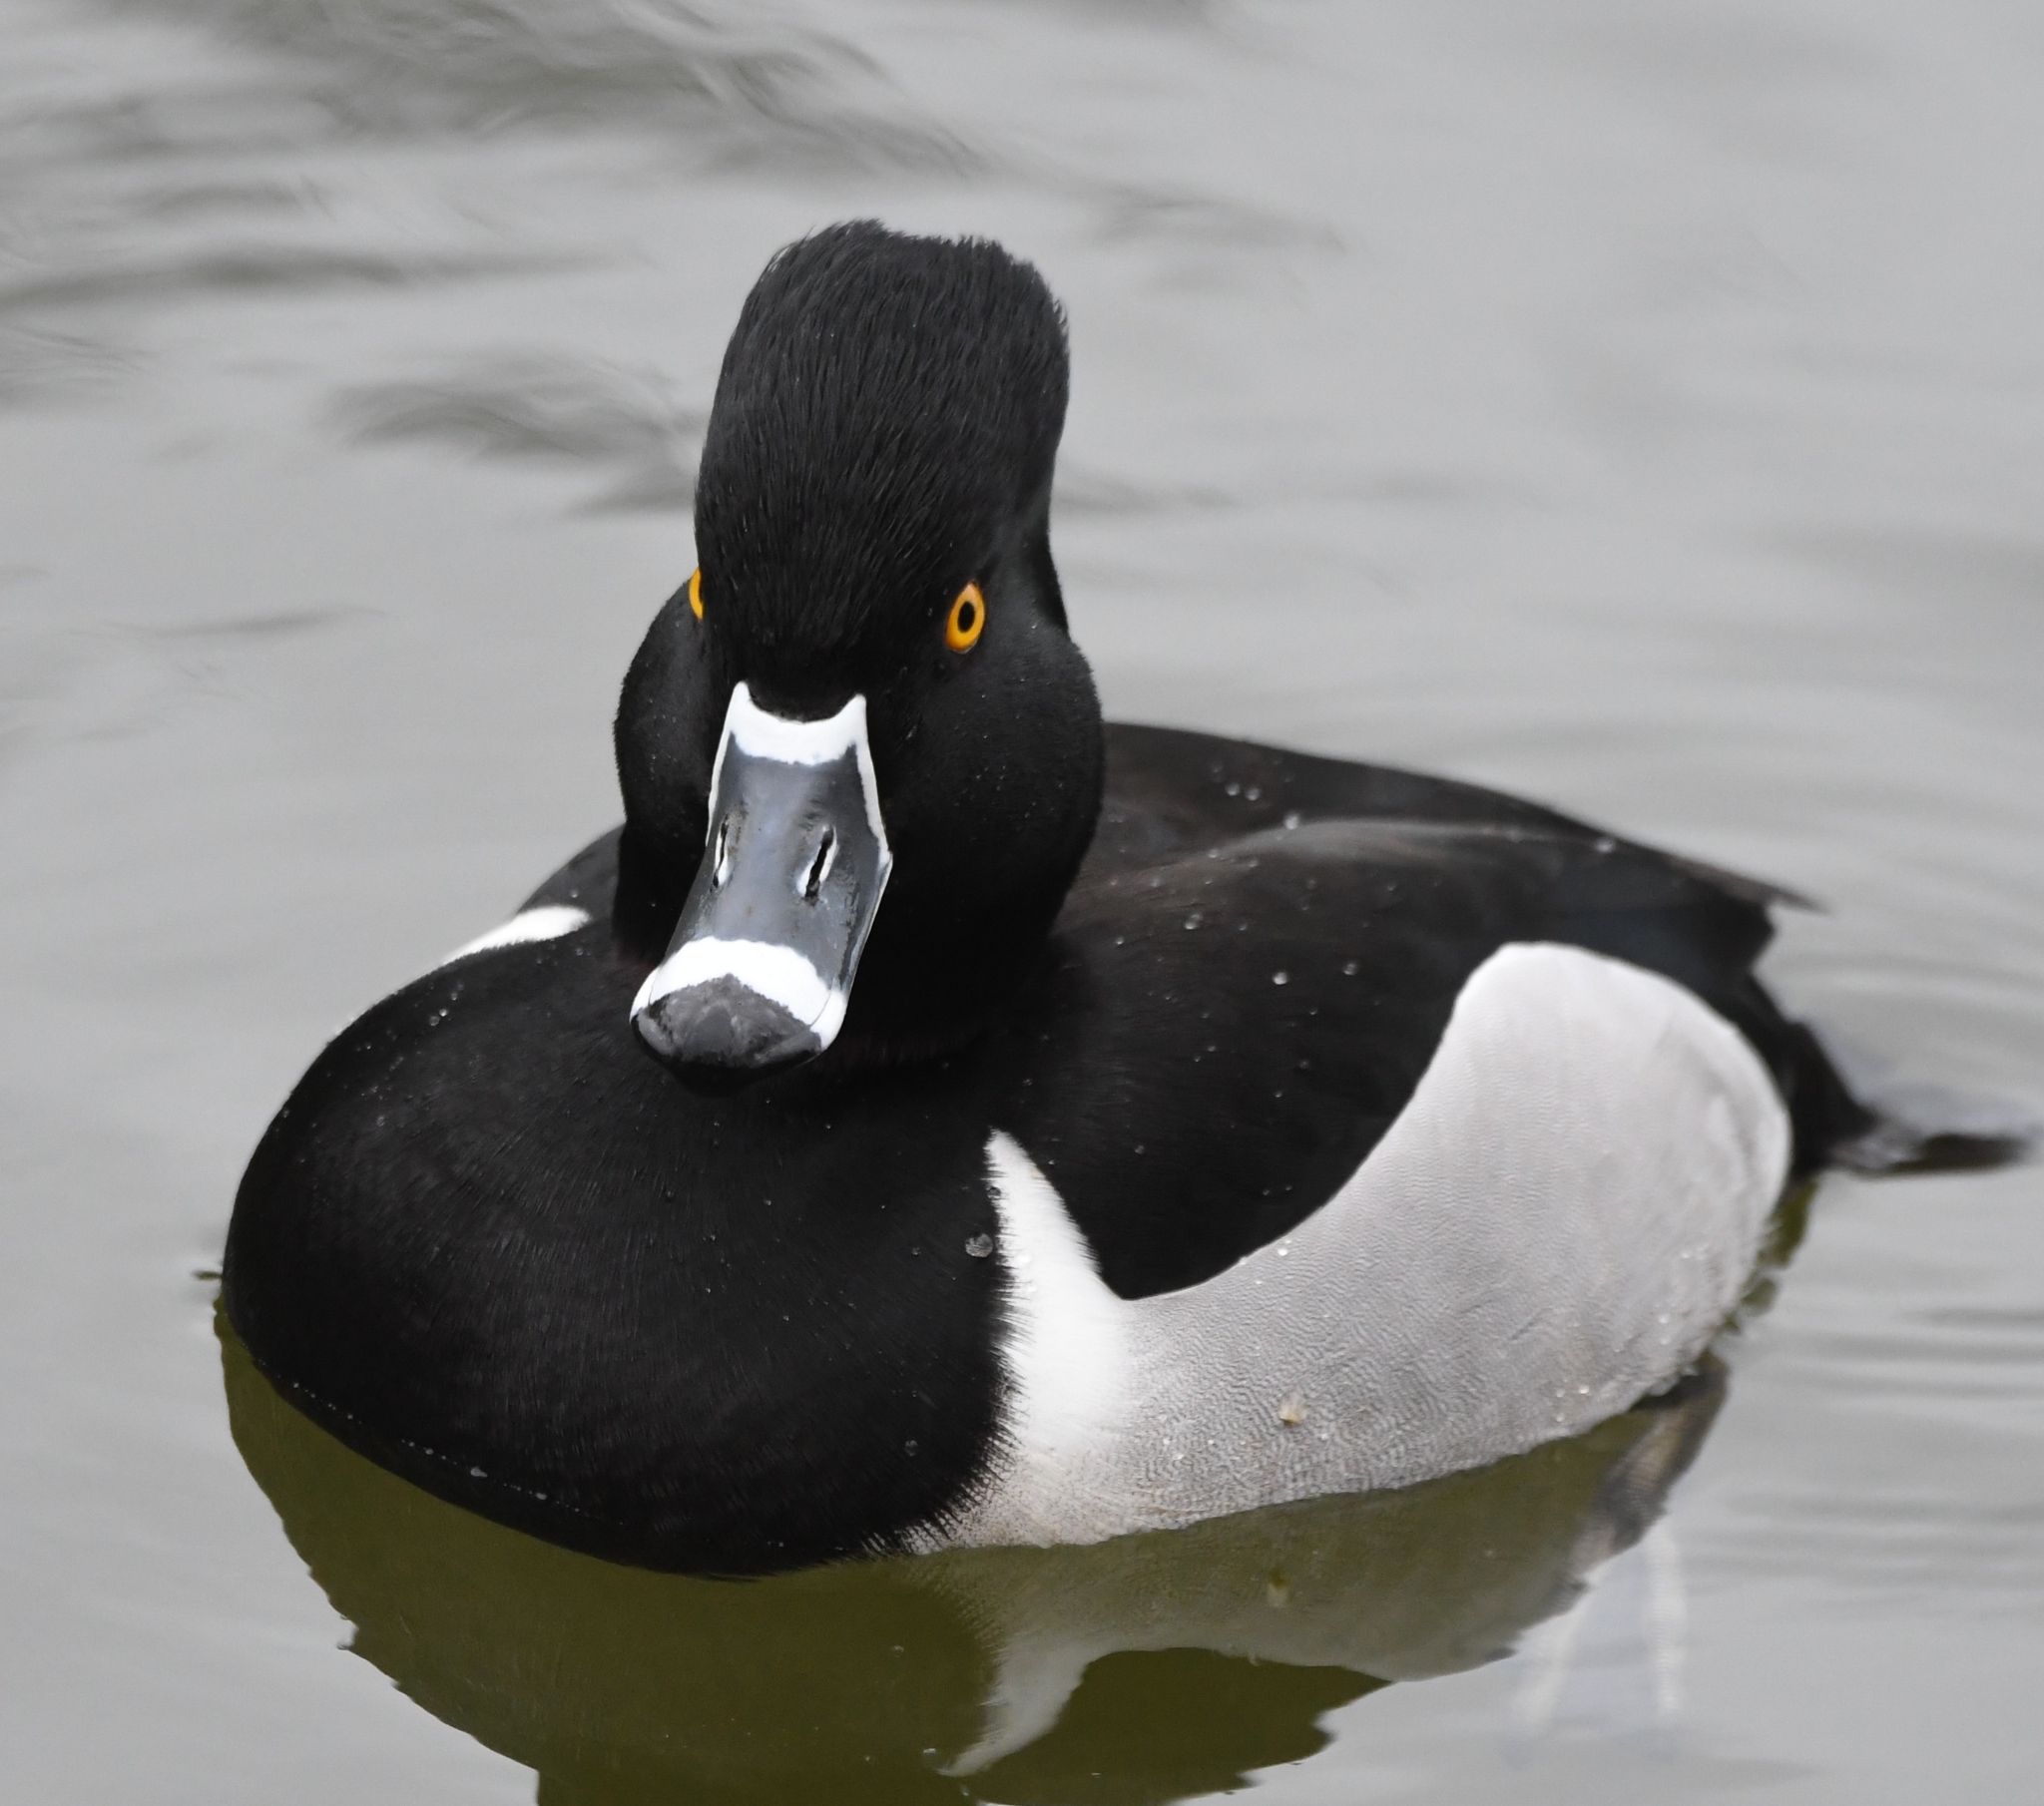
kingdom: Animalia
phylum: Chordata
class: Aves
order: Anseriformes
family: Anatidae
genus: Aythya
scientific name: Aythya collaris
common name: Ring-necked duck
